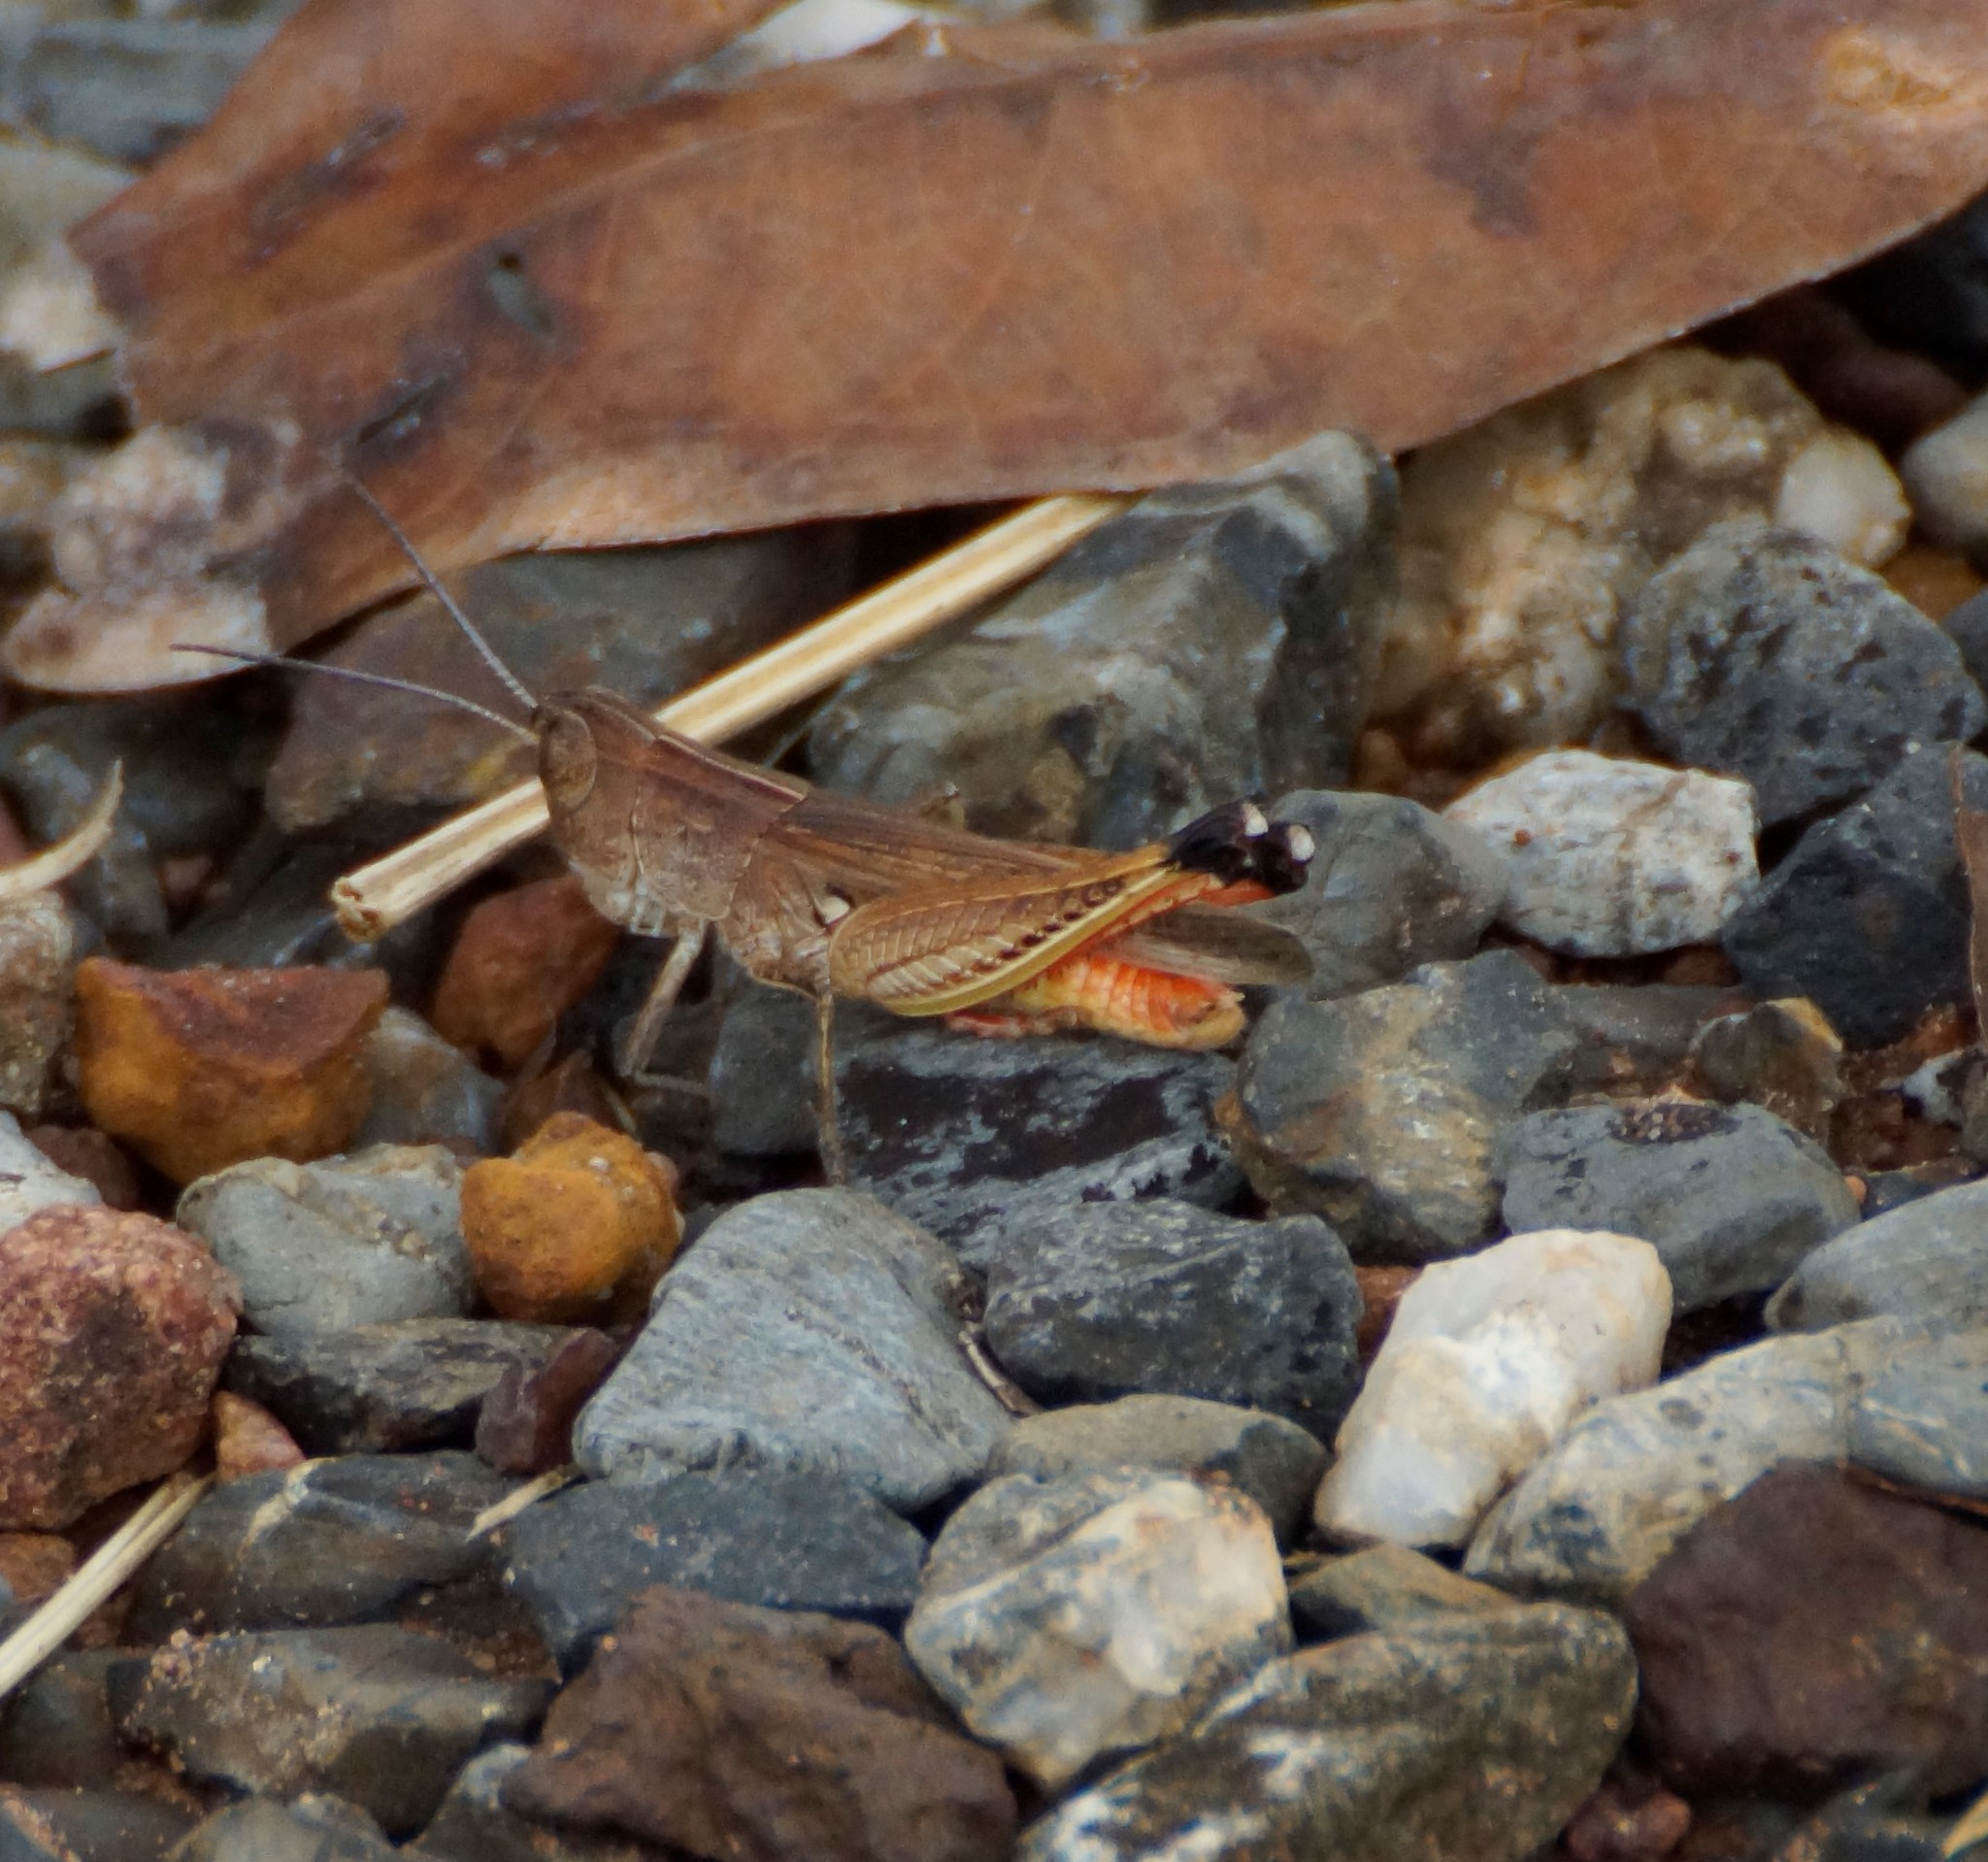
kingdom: Animalia
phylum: Arthropoda
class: Insecta
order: Orthoptera
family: Acrididae
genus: Curpilladia
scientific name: Curpilladia flavocarinata
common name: Territory lined grasshopper
